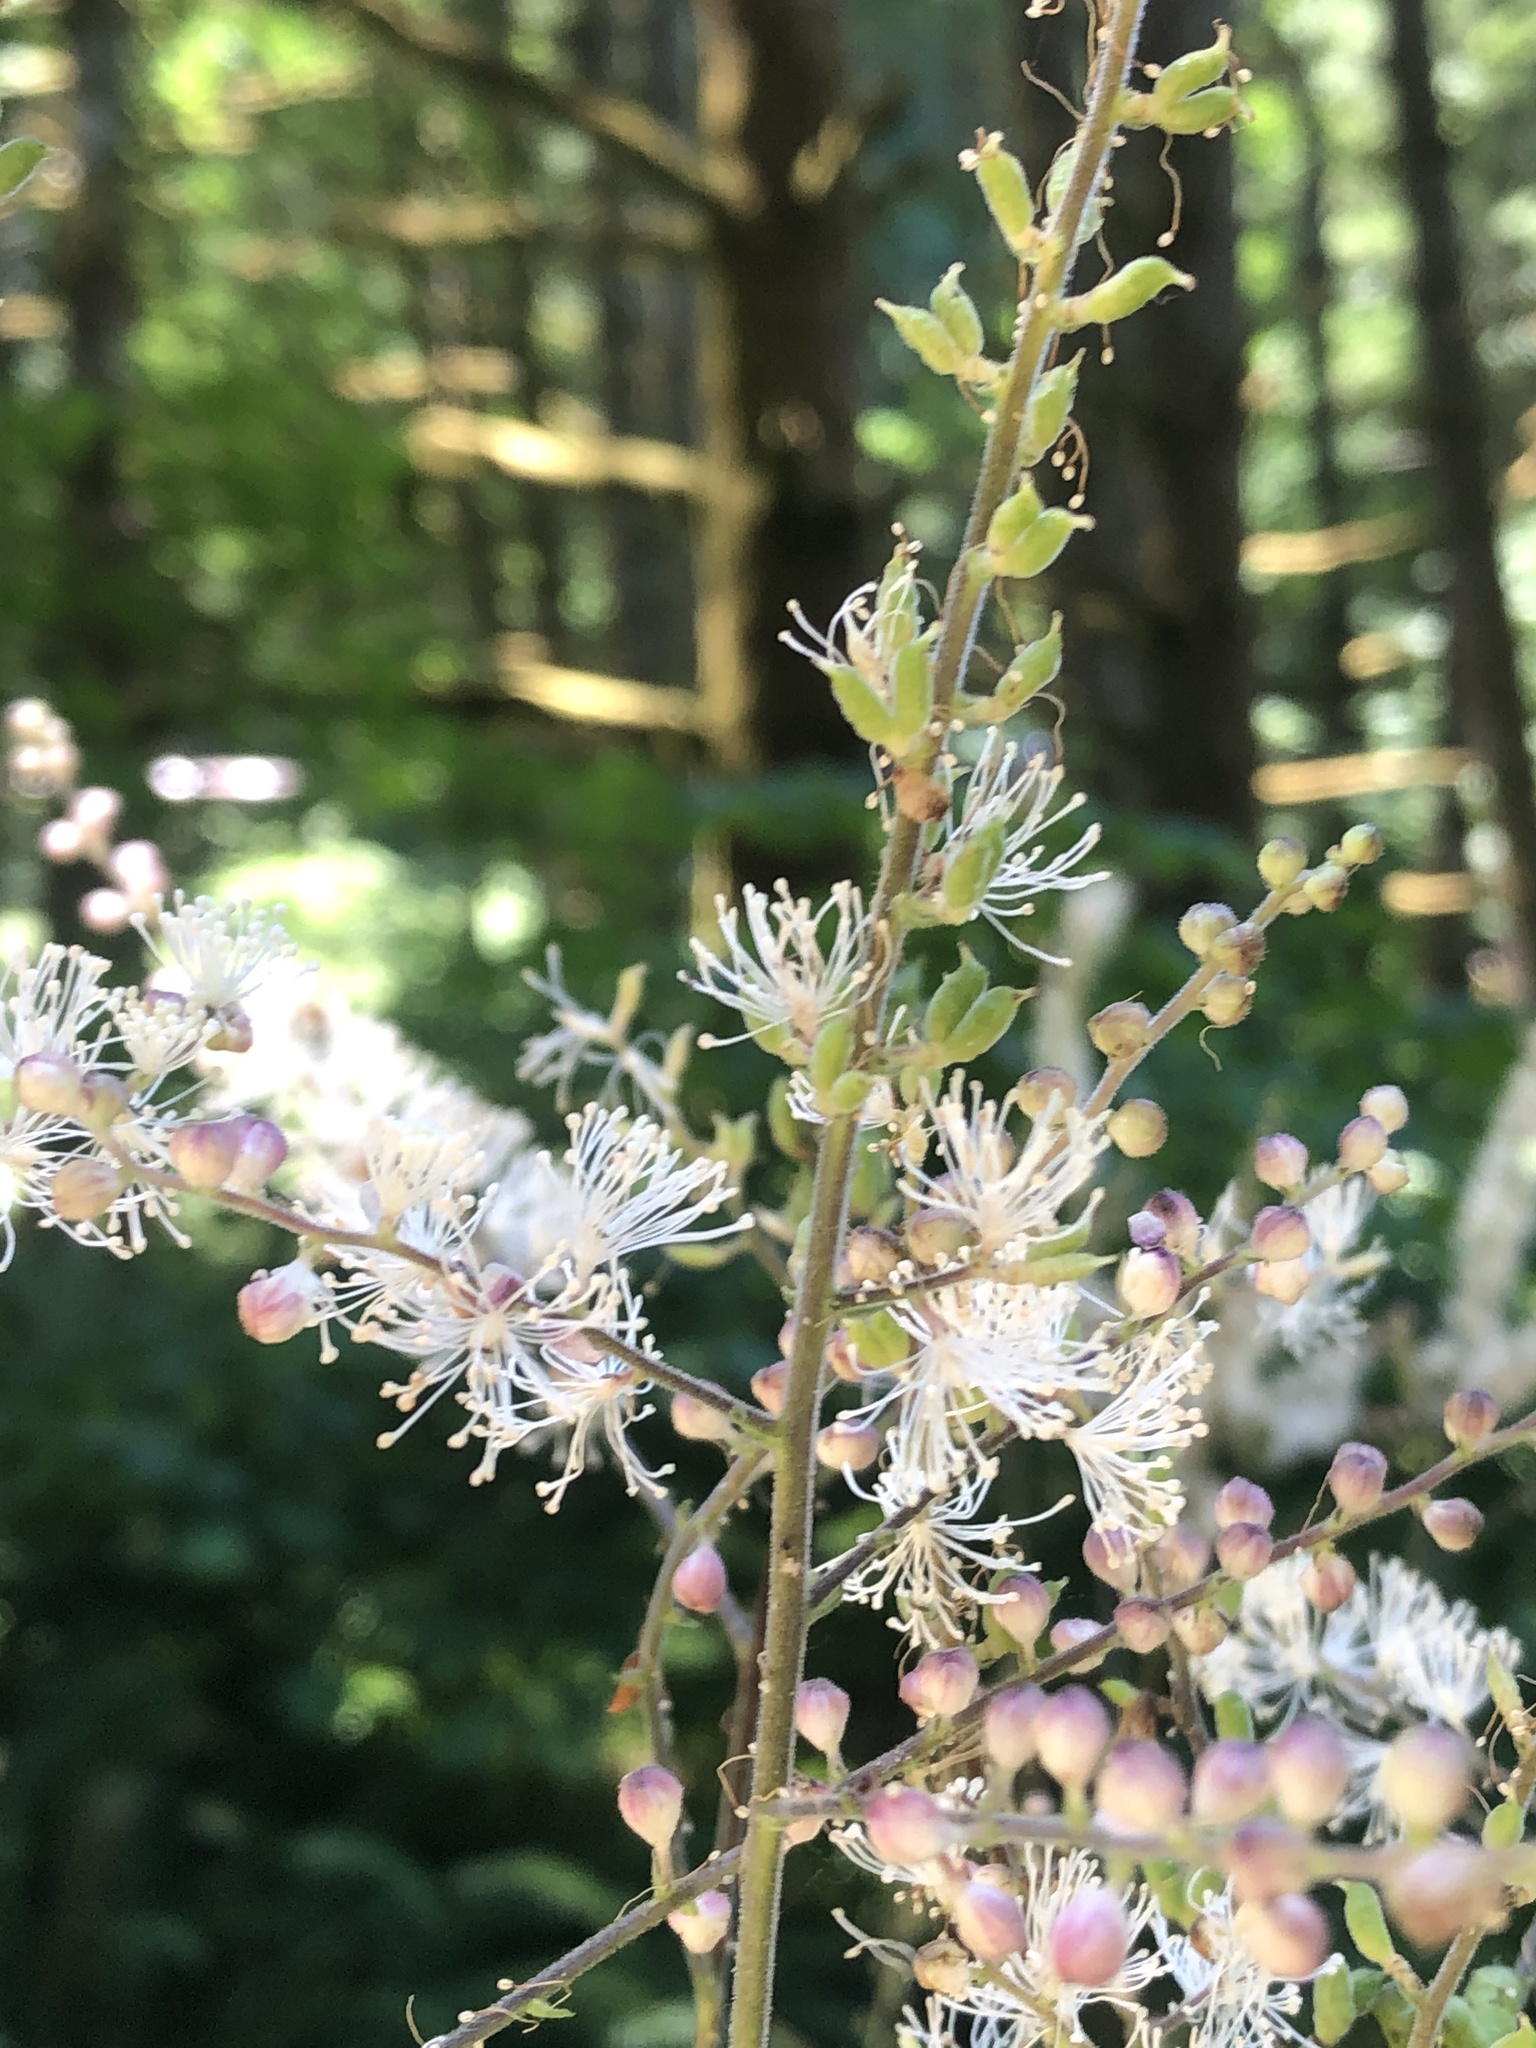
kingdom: Plantae
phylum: Tracheophyta
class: Magnoliopsida
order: Ranunculales
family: Ranunculaceae
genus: Actaea
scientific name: Actaea elata
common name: Tall bugbane
